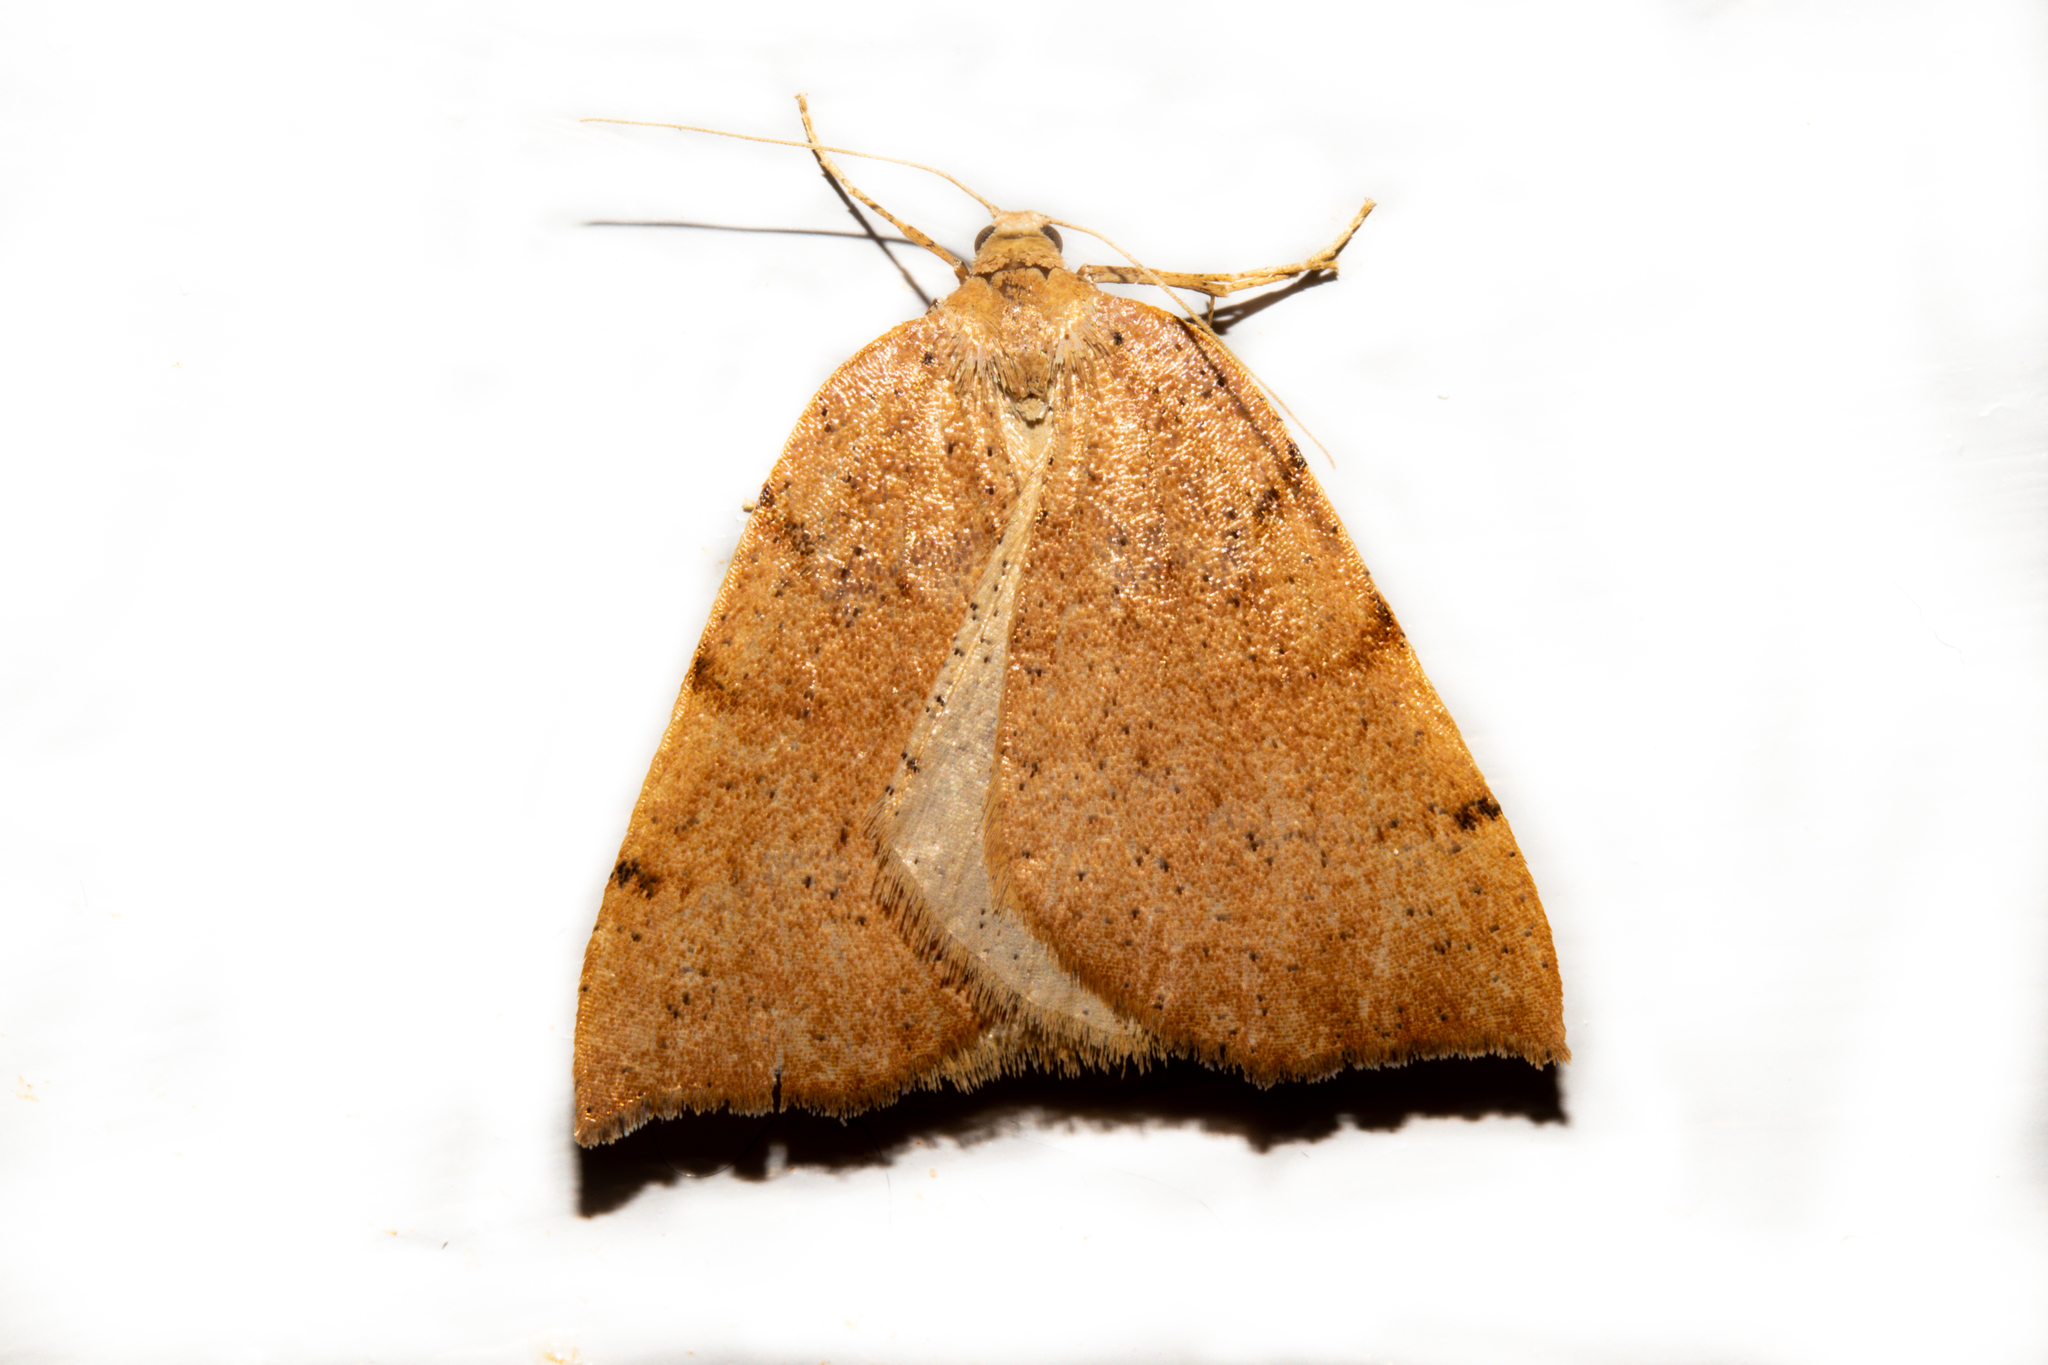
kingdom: Animalia
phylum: Arthropoda
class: Insecta
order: Lepidoptera
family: Geometridae
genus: Sestra
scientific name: Sestra humeraria
